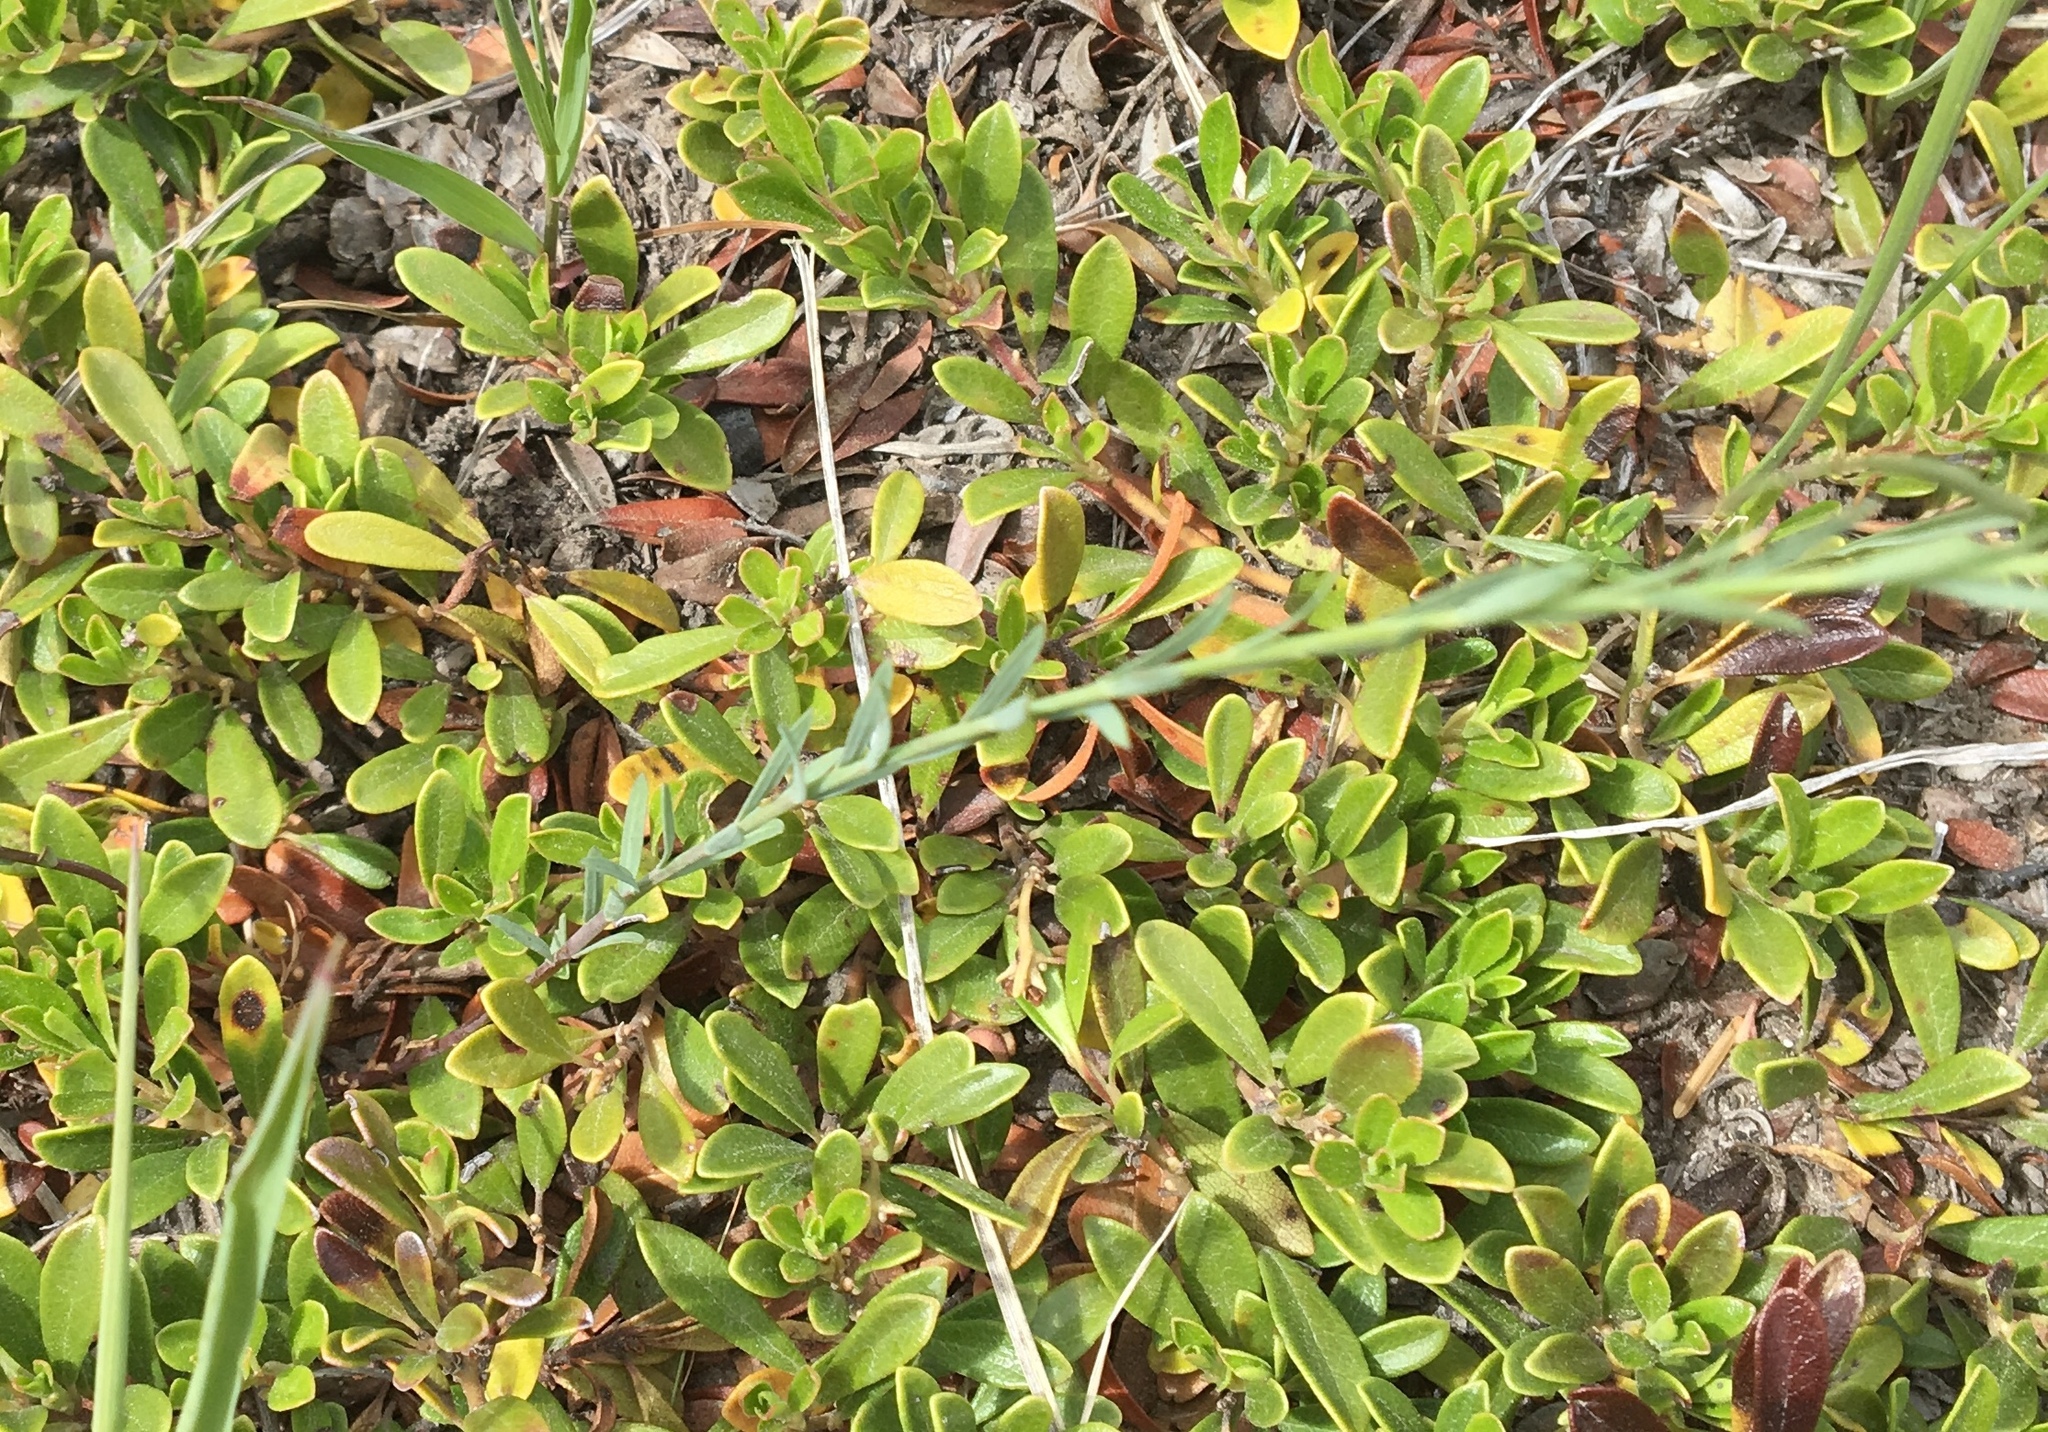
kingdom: Plantae
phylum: Tracheophyta
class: Magnoliopsida
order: Malpighiales
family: Linaceae
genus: Linum
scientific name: Linum lewisii
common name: Prairie flax
